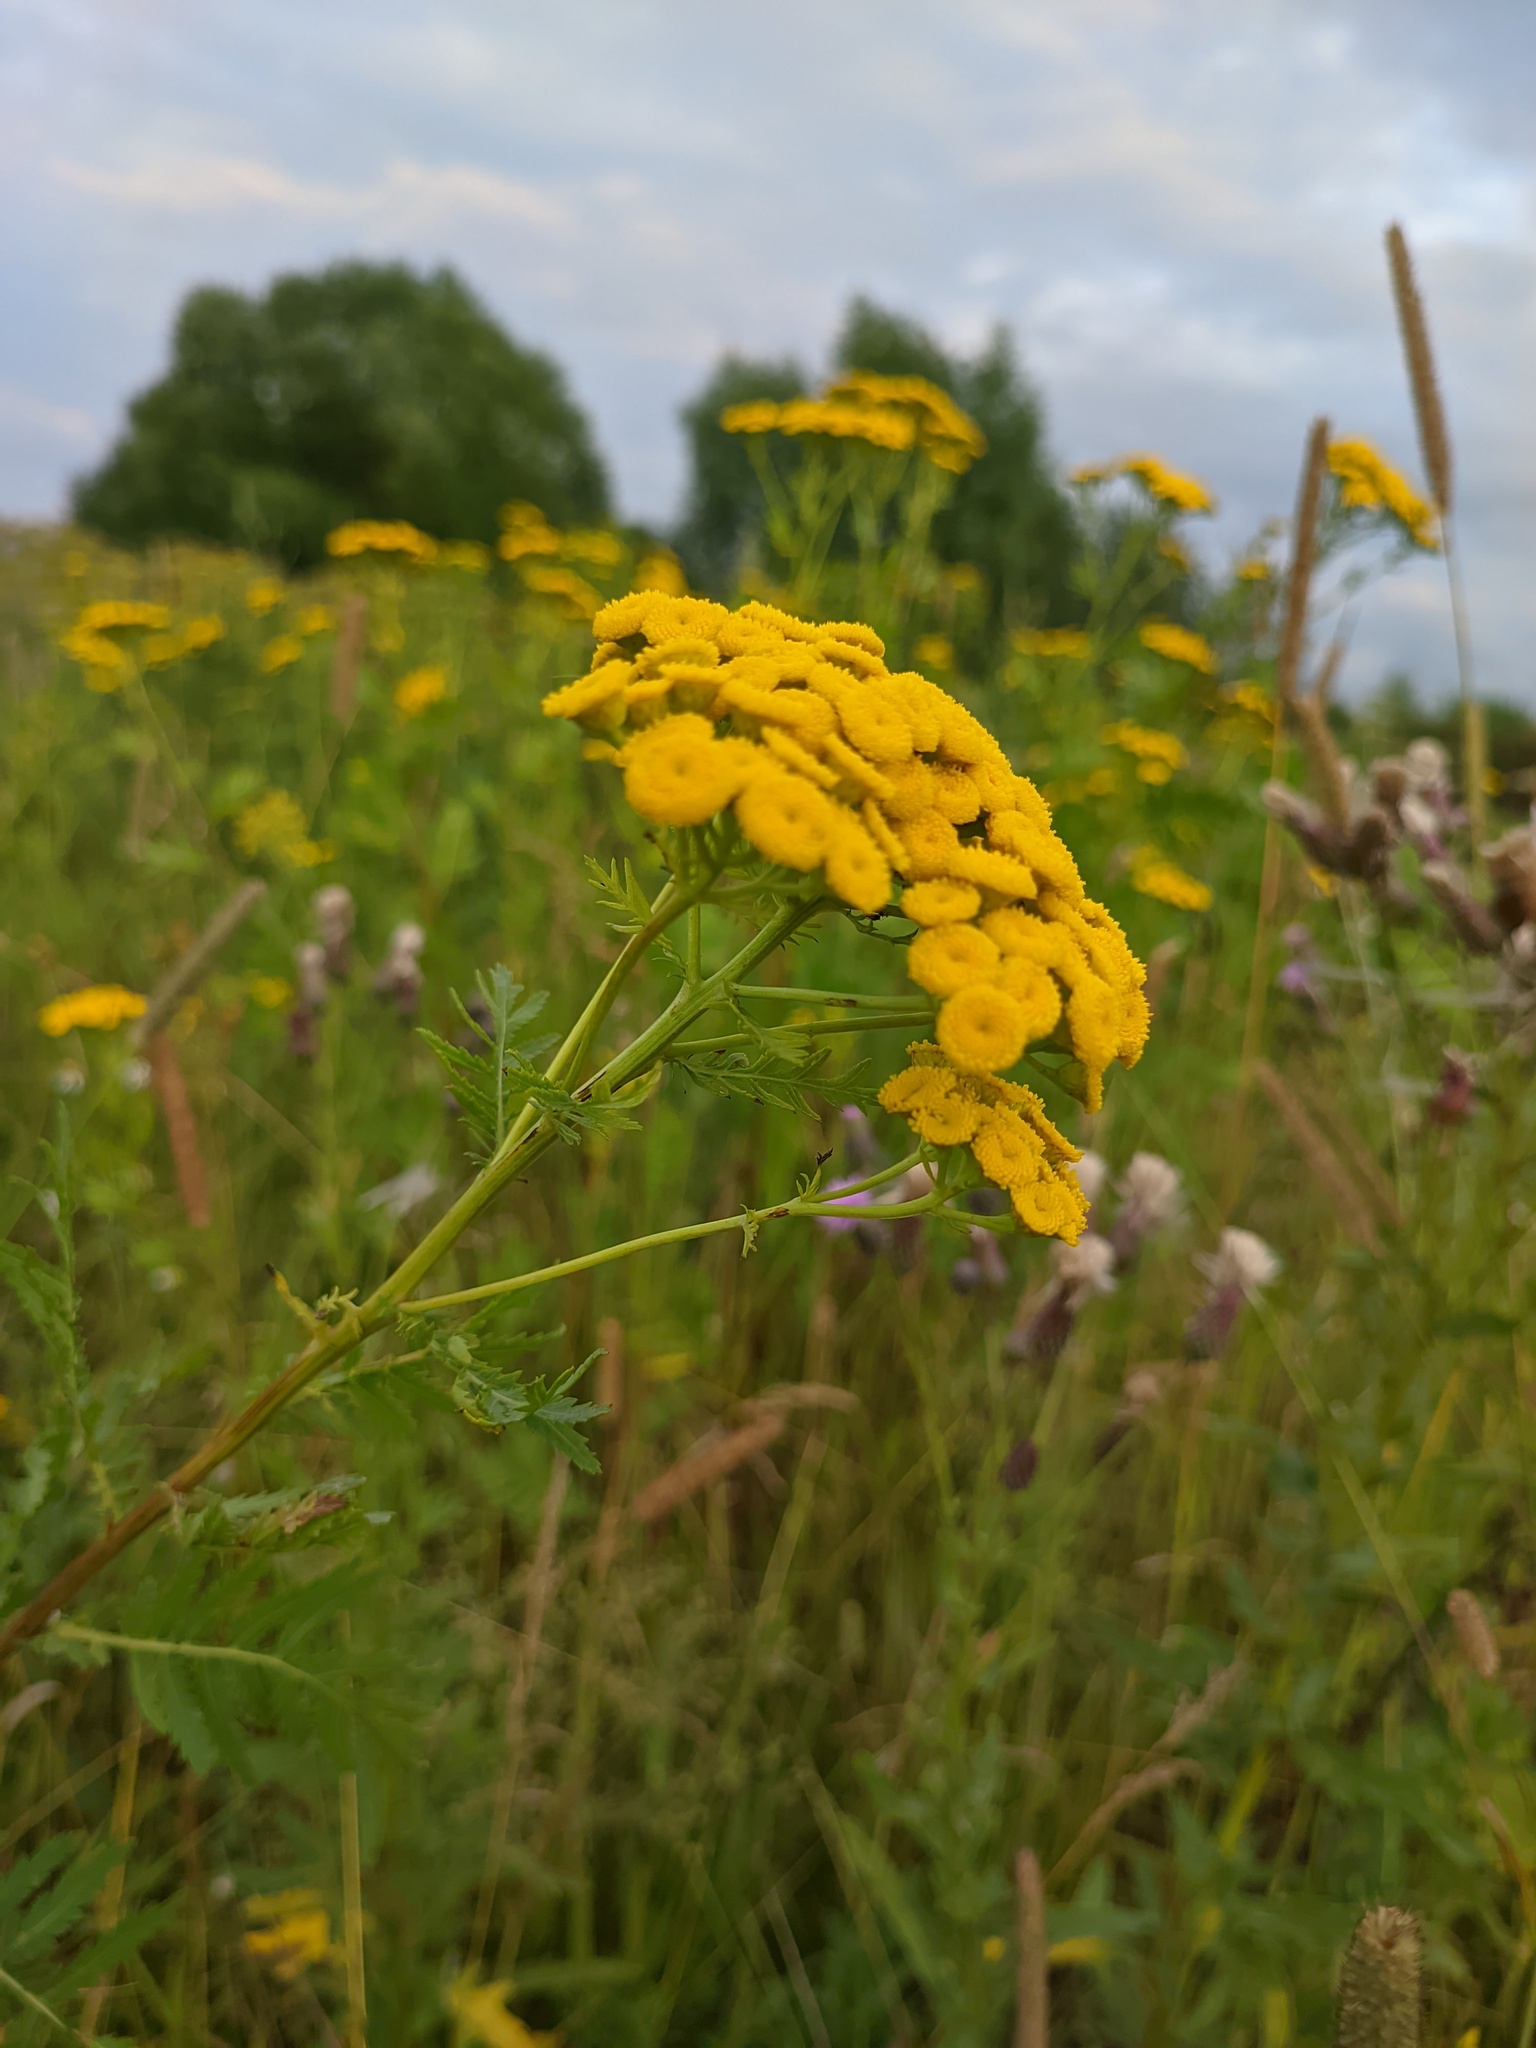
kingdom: Plantae
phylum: Tracheophyta
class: Magnoliopsida
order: Asterales
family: Asteraceae
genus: Tanacetum
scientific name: Tanacetum vulgare
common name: Common tansy
